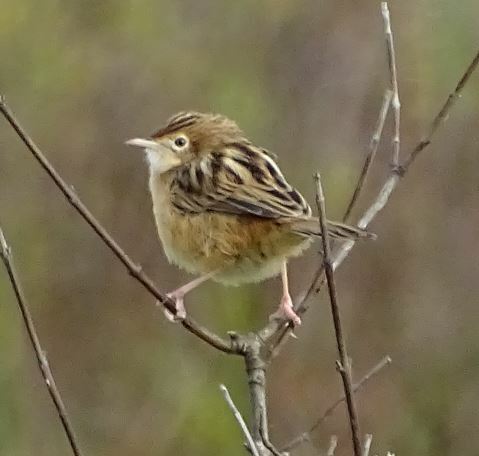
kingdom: Animalia
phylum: Chordata
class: Aves
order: Passeriformes
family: Cisticolidae
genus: Cisticola
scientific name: Cisticola juncidis
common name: Zitting cisticola
